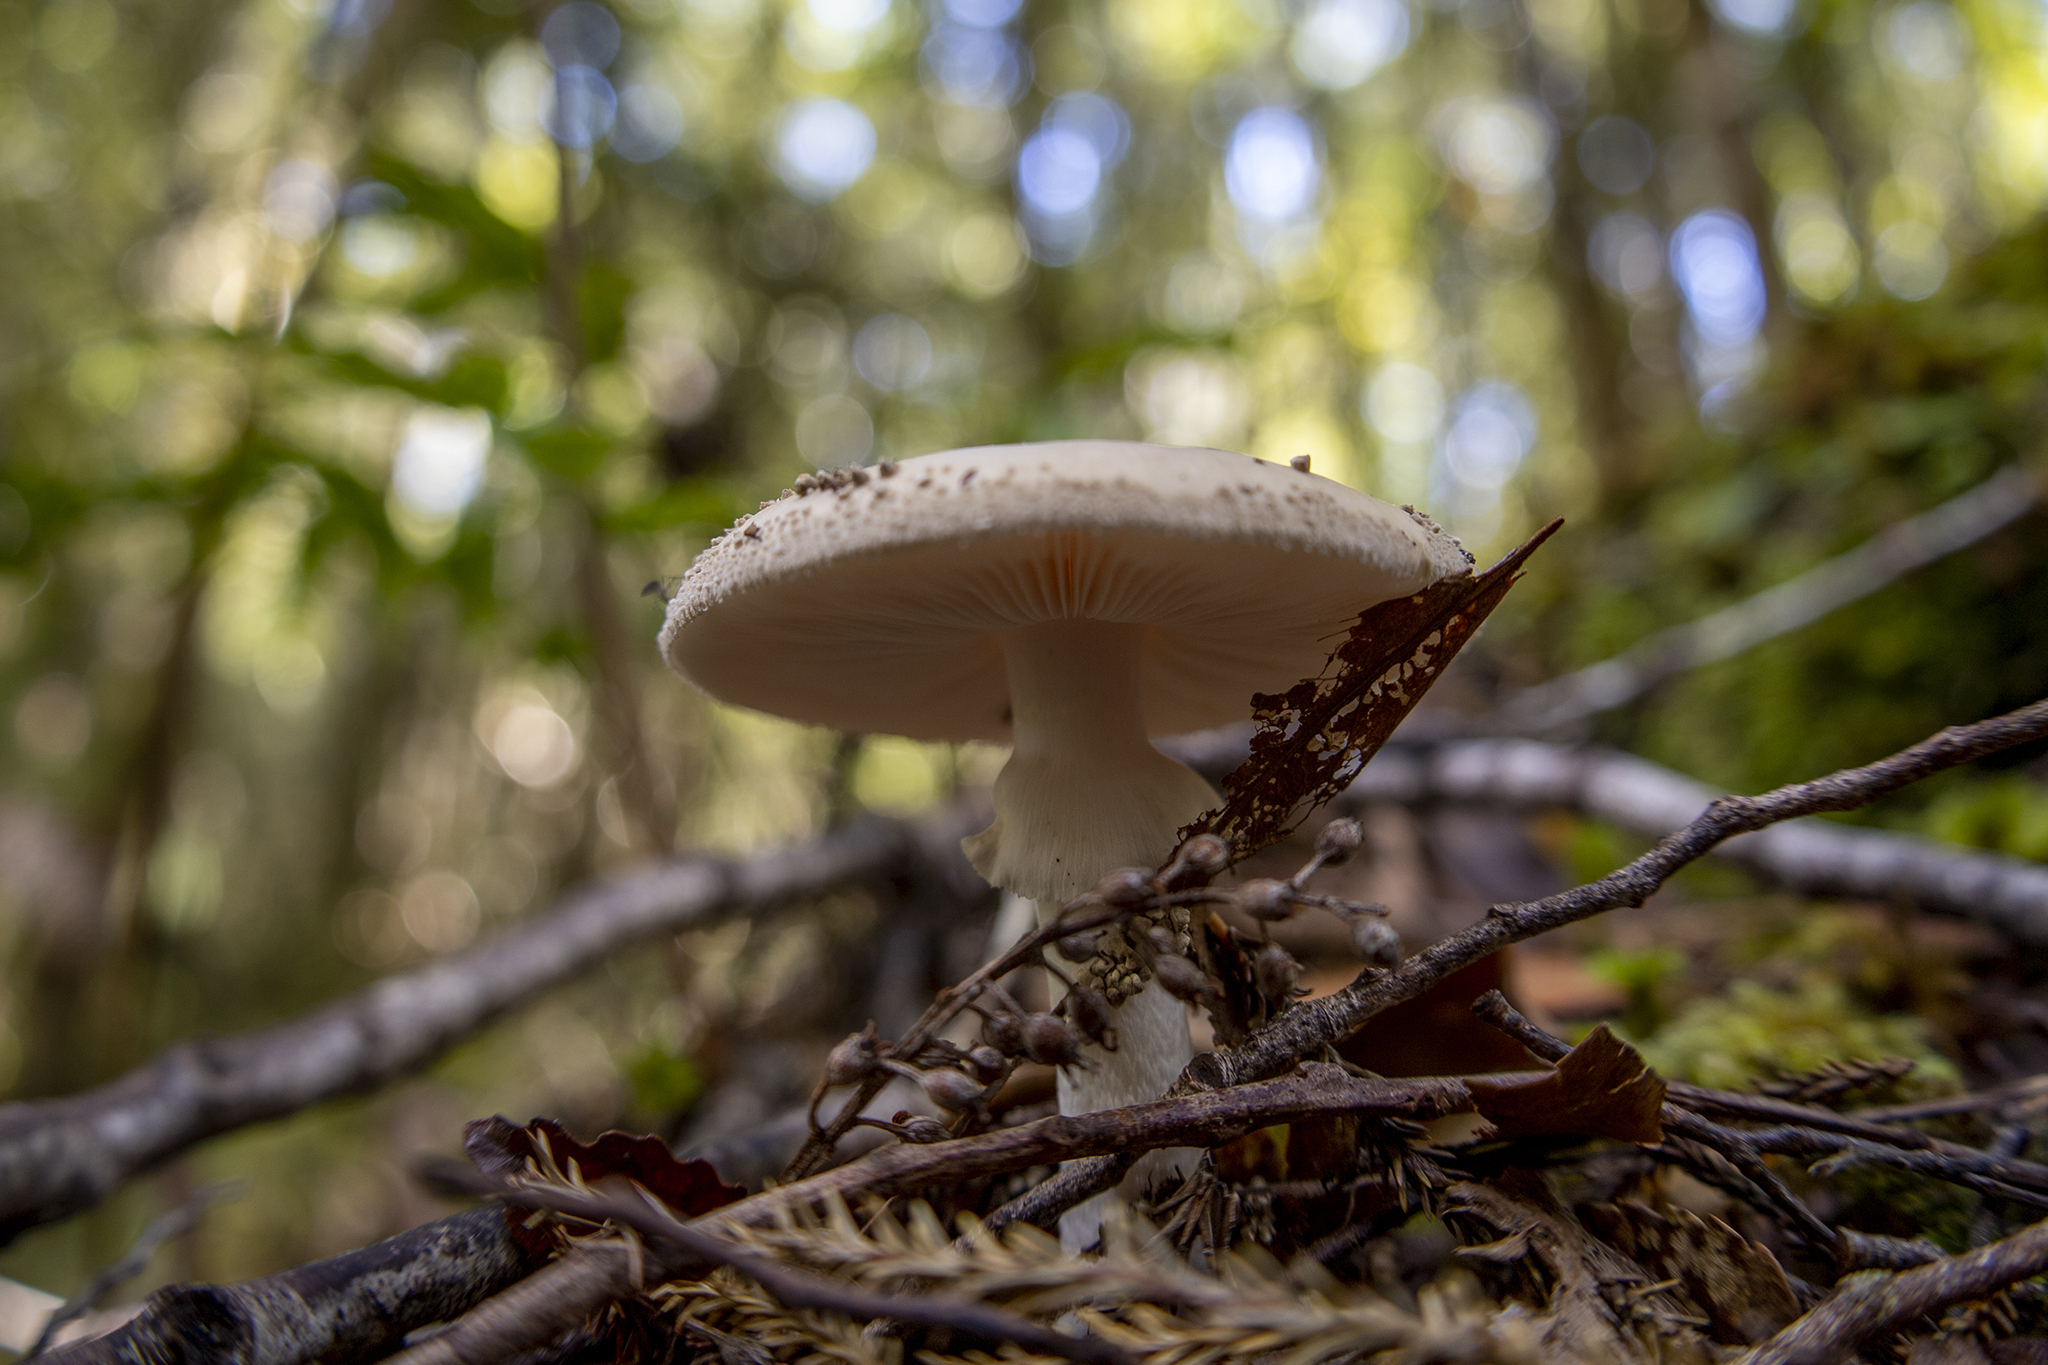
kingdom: Fungi
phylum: Basidiomycota
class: Agaricomycetes
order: Agaricales
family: Amanitaceae
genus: Amanita
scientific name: Amanita australis
